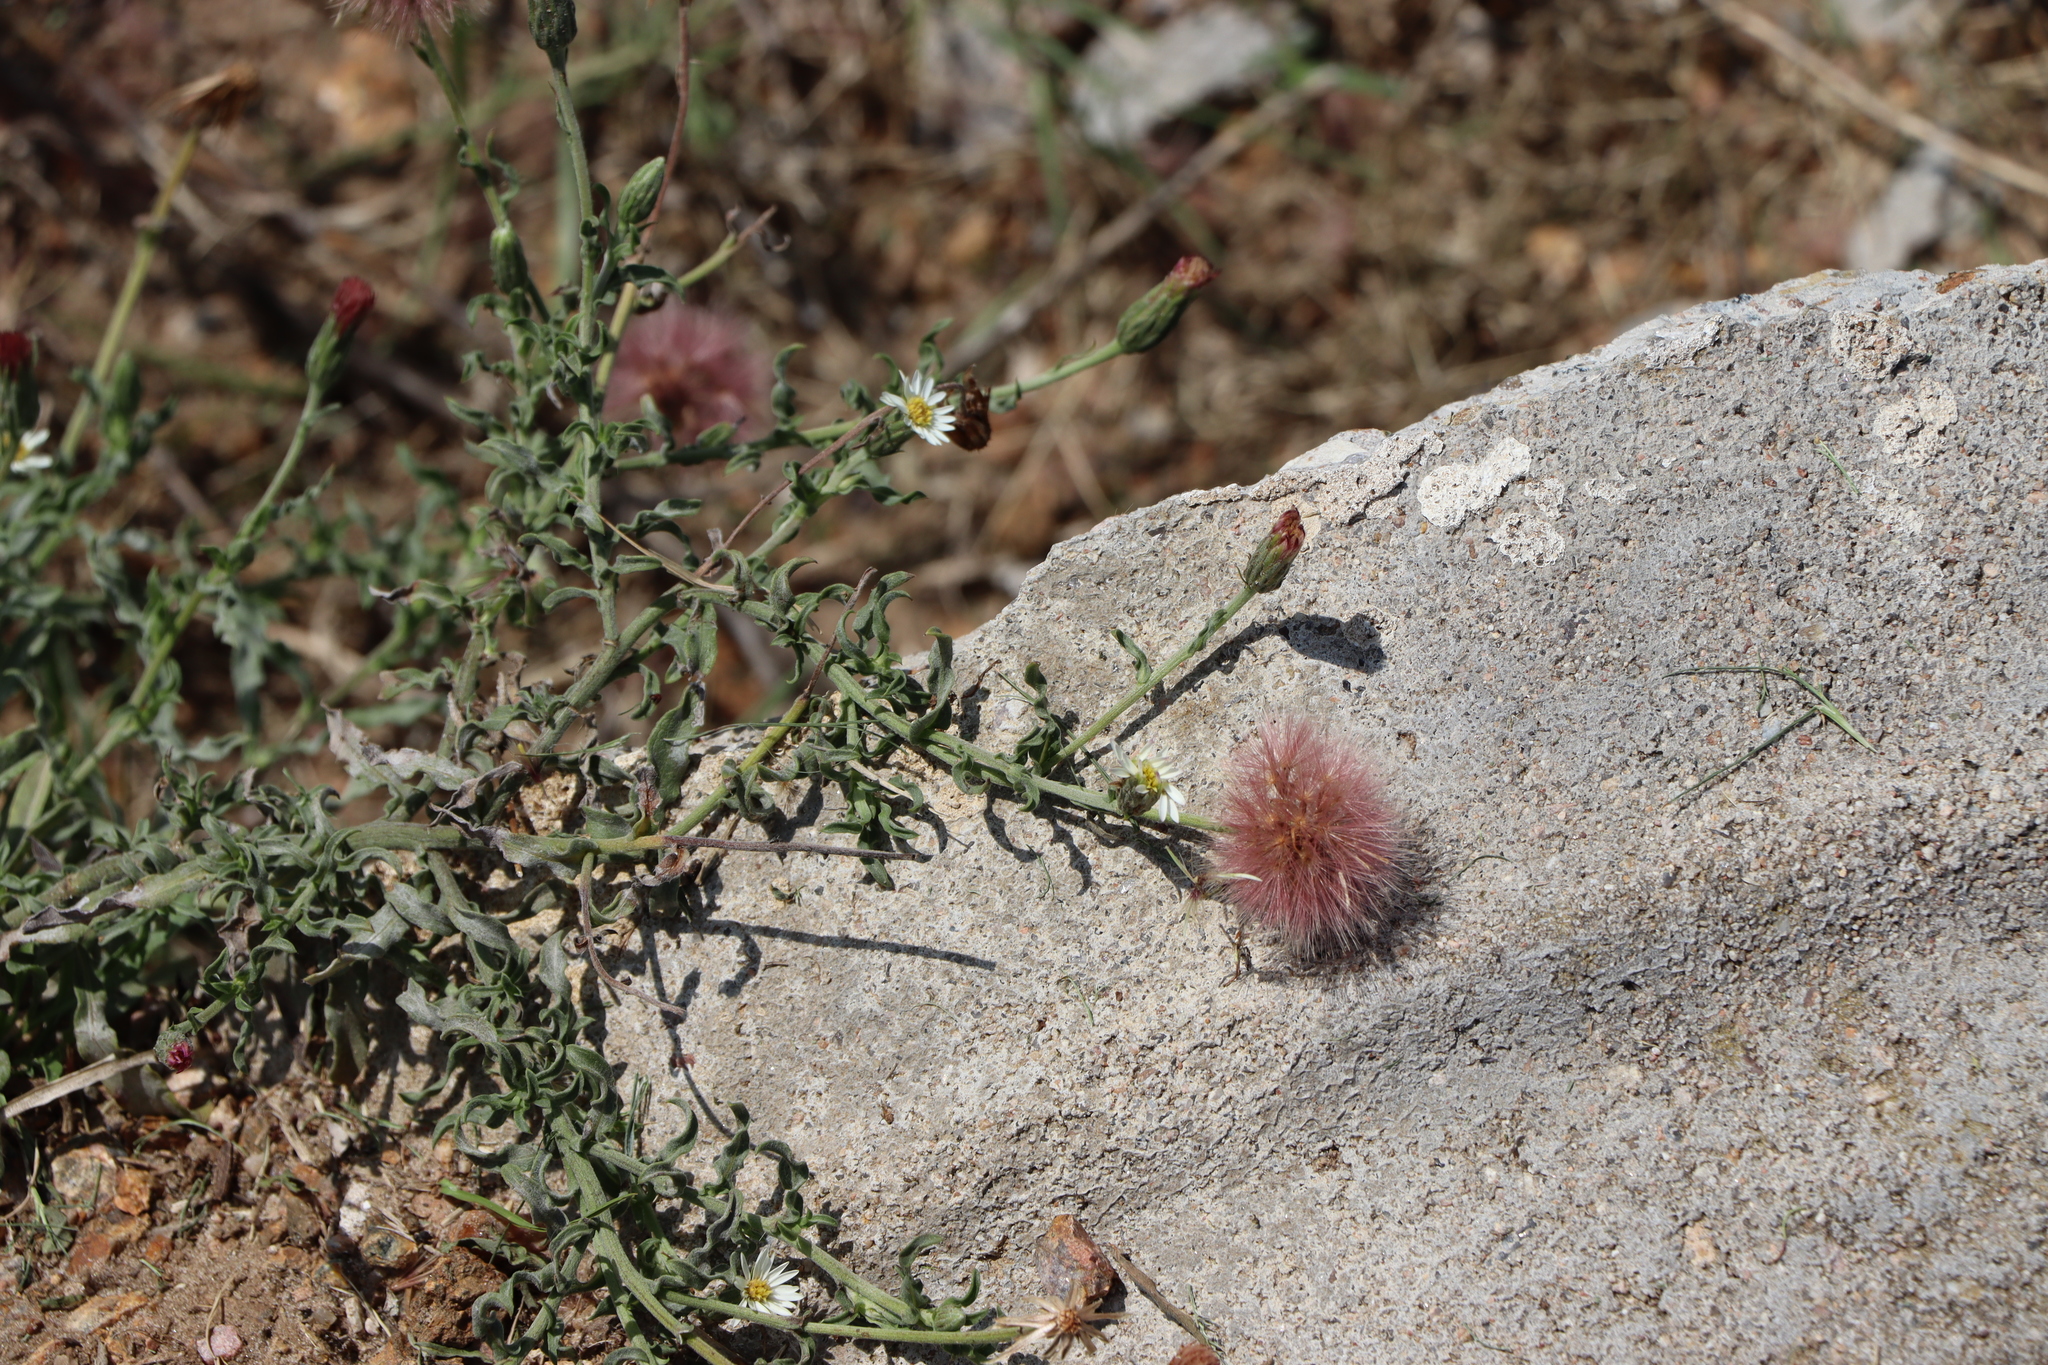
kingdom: Plantae
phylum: Tracheophyta
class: Magnoliopsida
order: Asterales
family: Asteraceae
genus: Noticastrum
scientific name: Noticastrum diffusum
